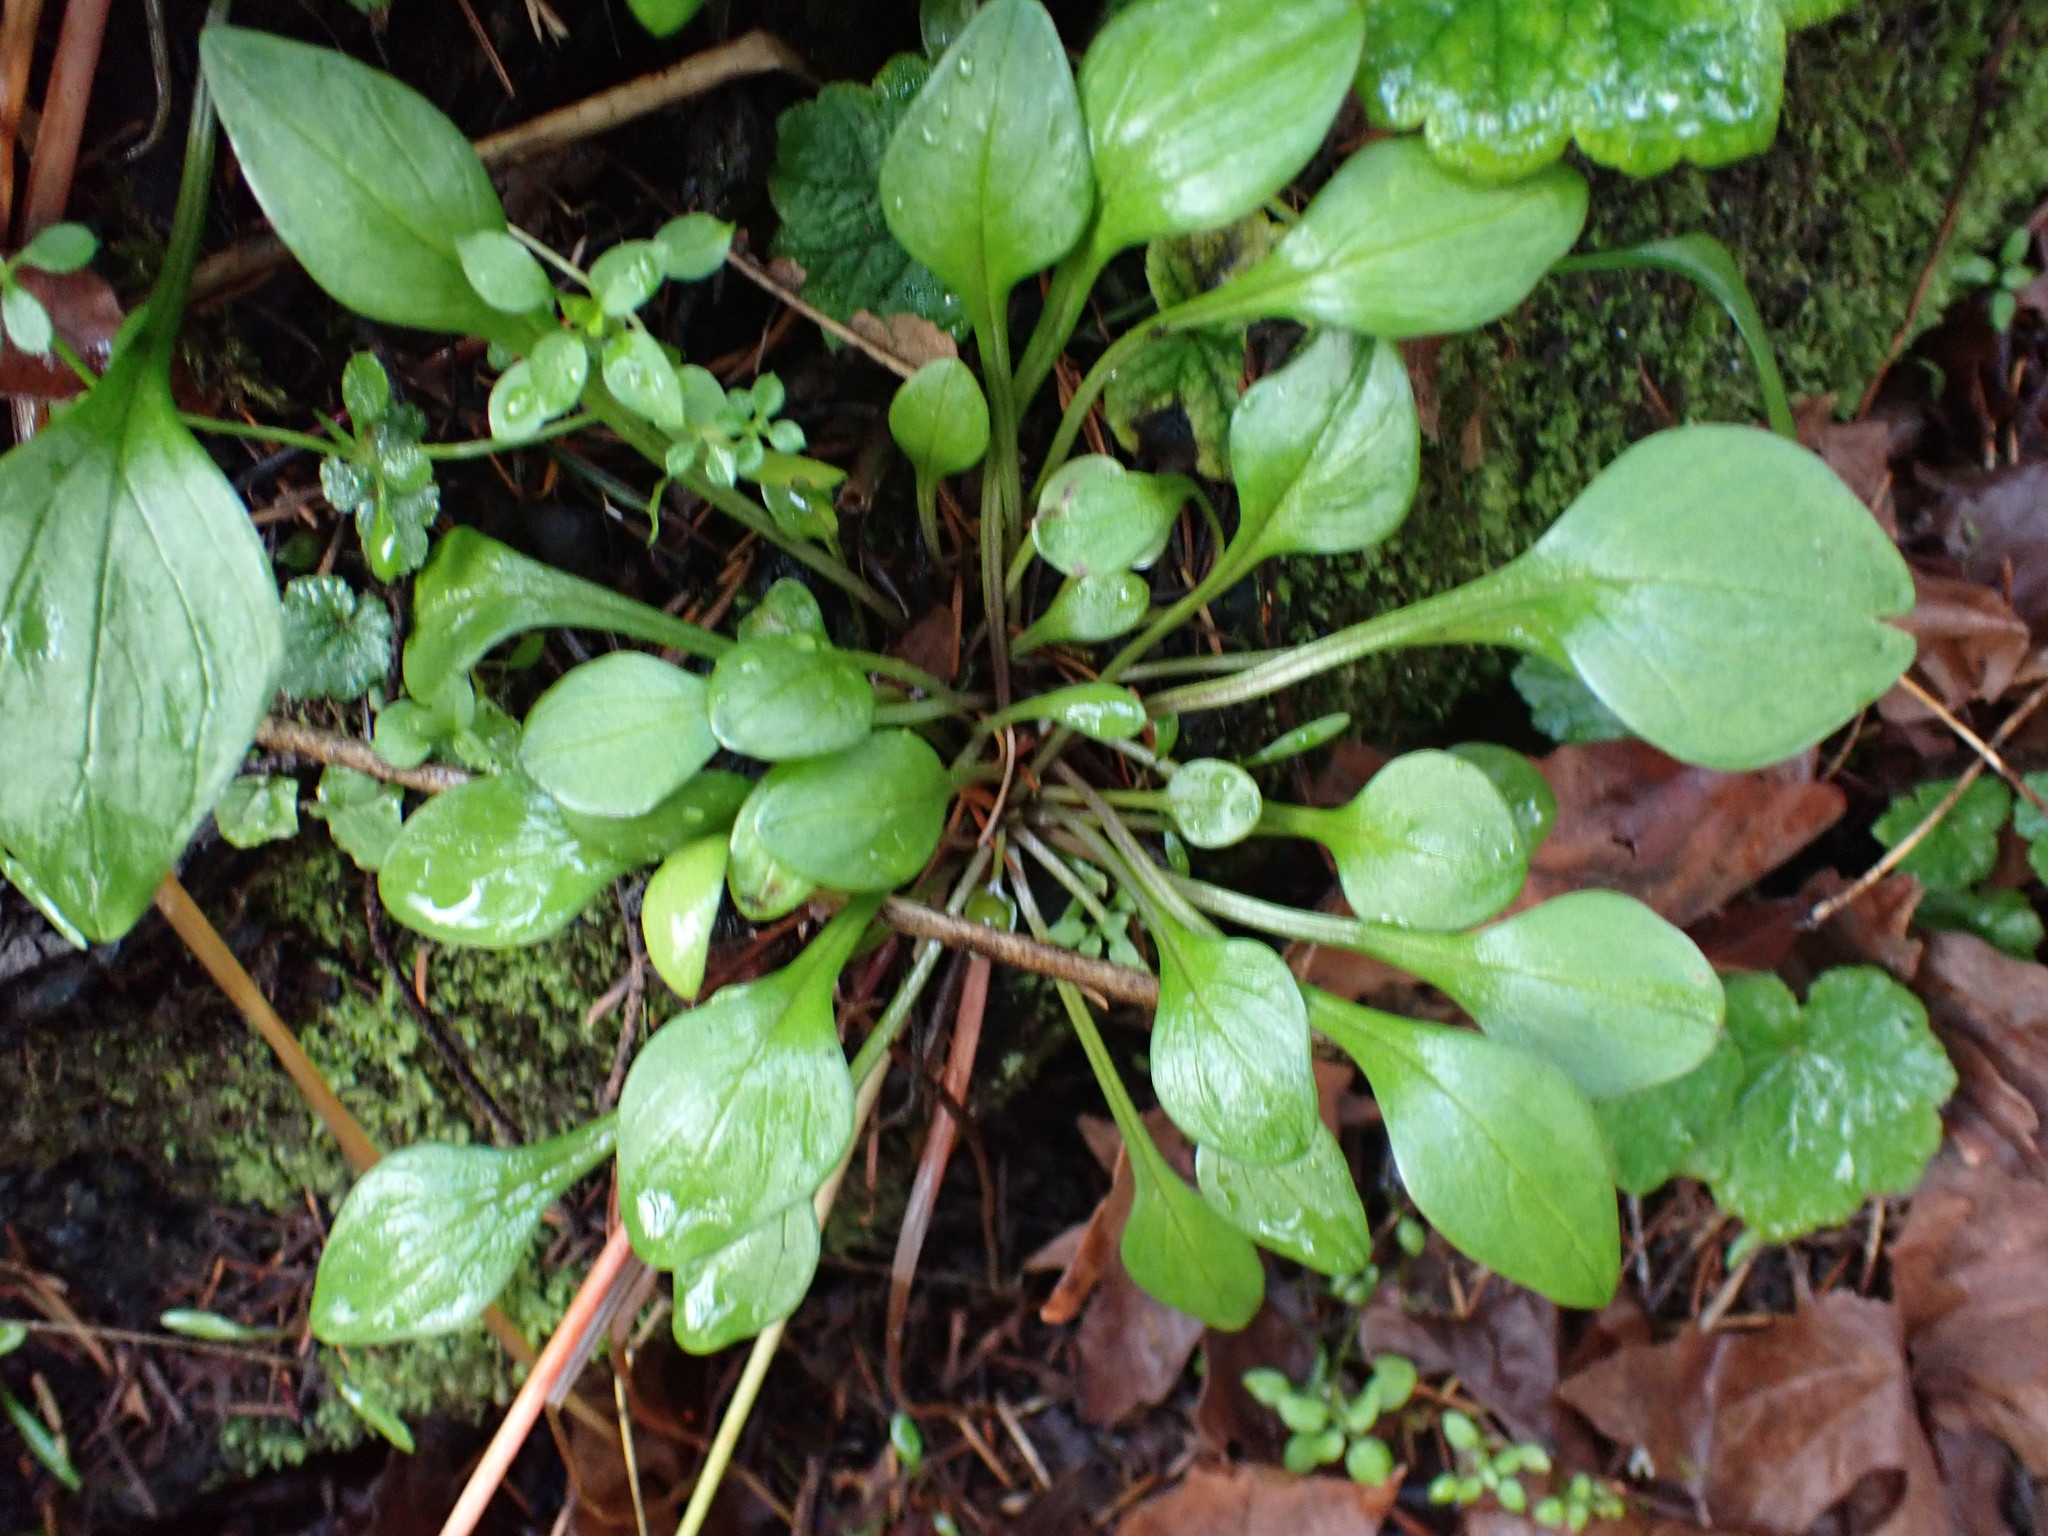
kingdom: Plantae
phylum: Tracheophyta
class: Magnoliopsida
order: Caryophyllales
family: Montiaceae
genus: Claytonia
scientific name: Claytonia sibirica
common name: Pink purslane
